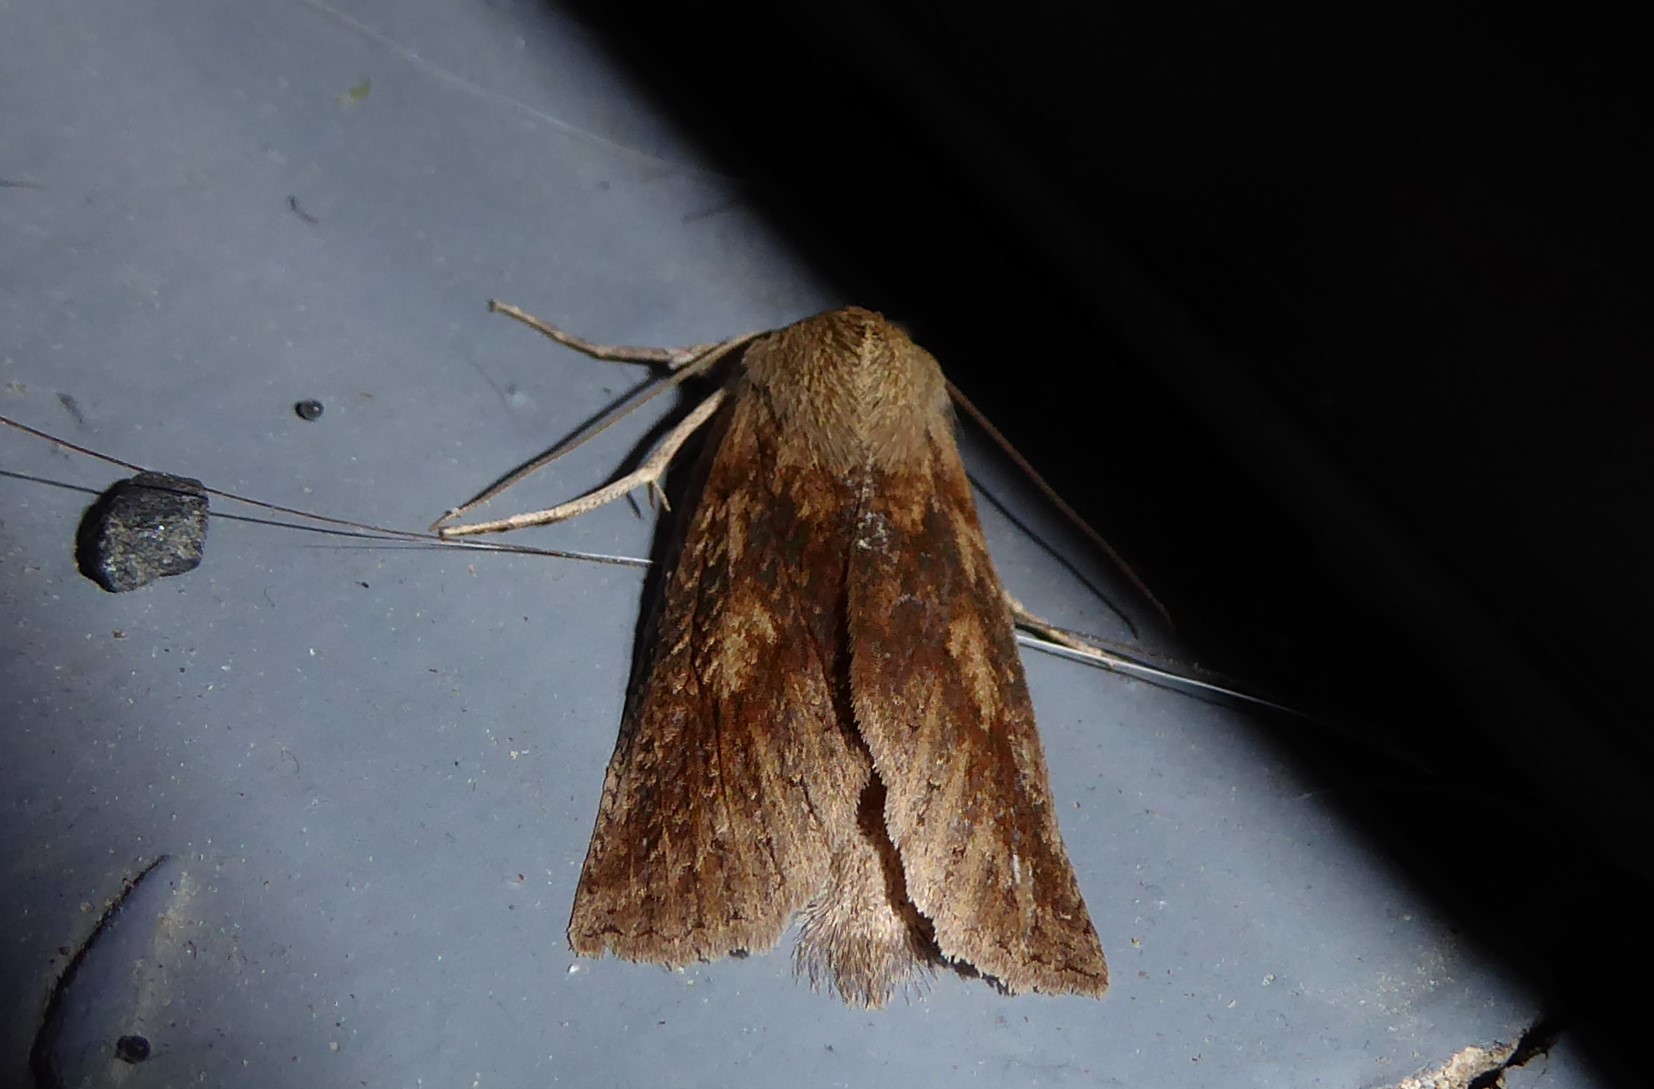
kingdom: Animalia
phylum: Arthropoda
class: Insecta
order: Lepidoptera
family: Geometridae
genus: Declana
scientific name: Declana leptomera
